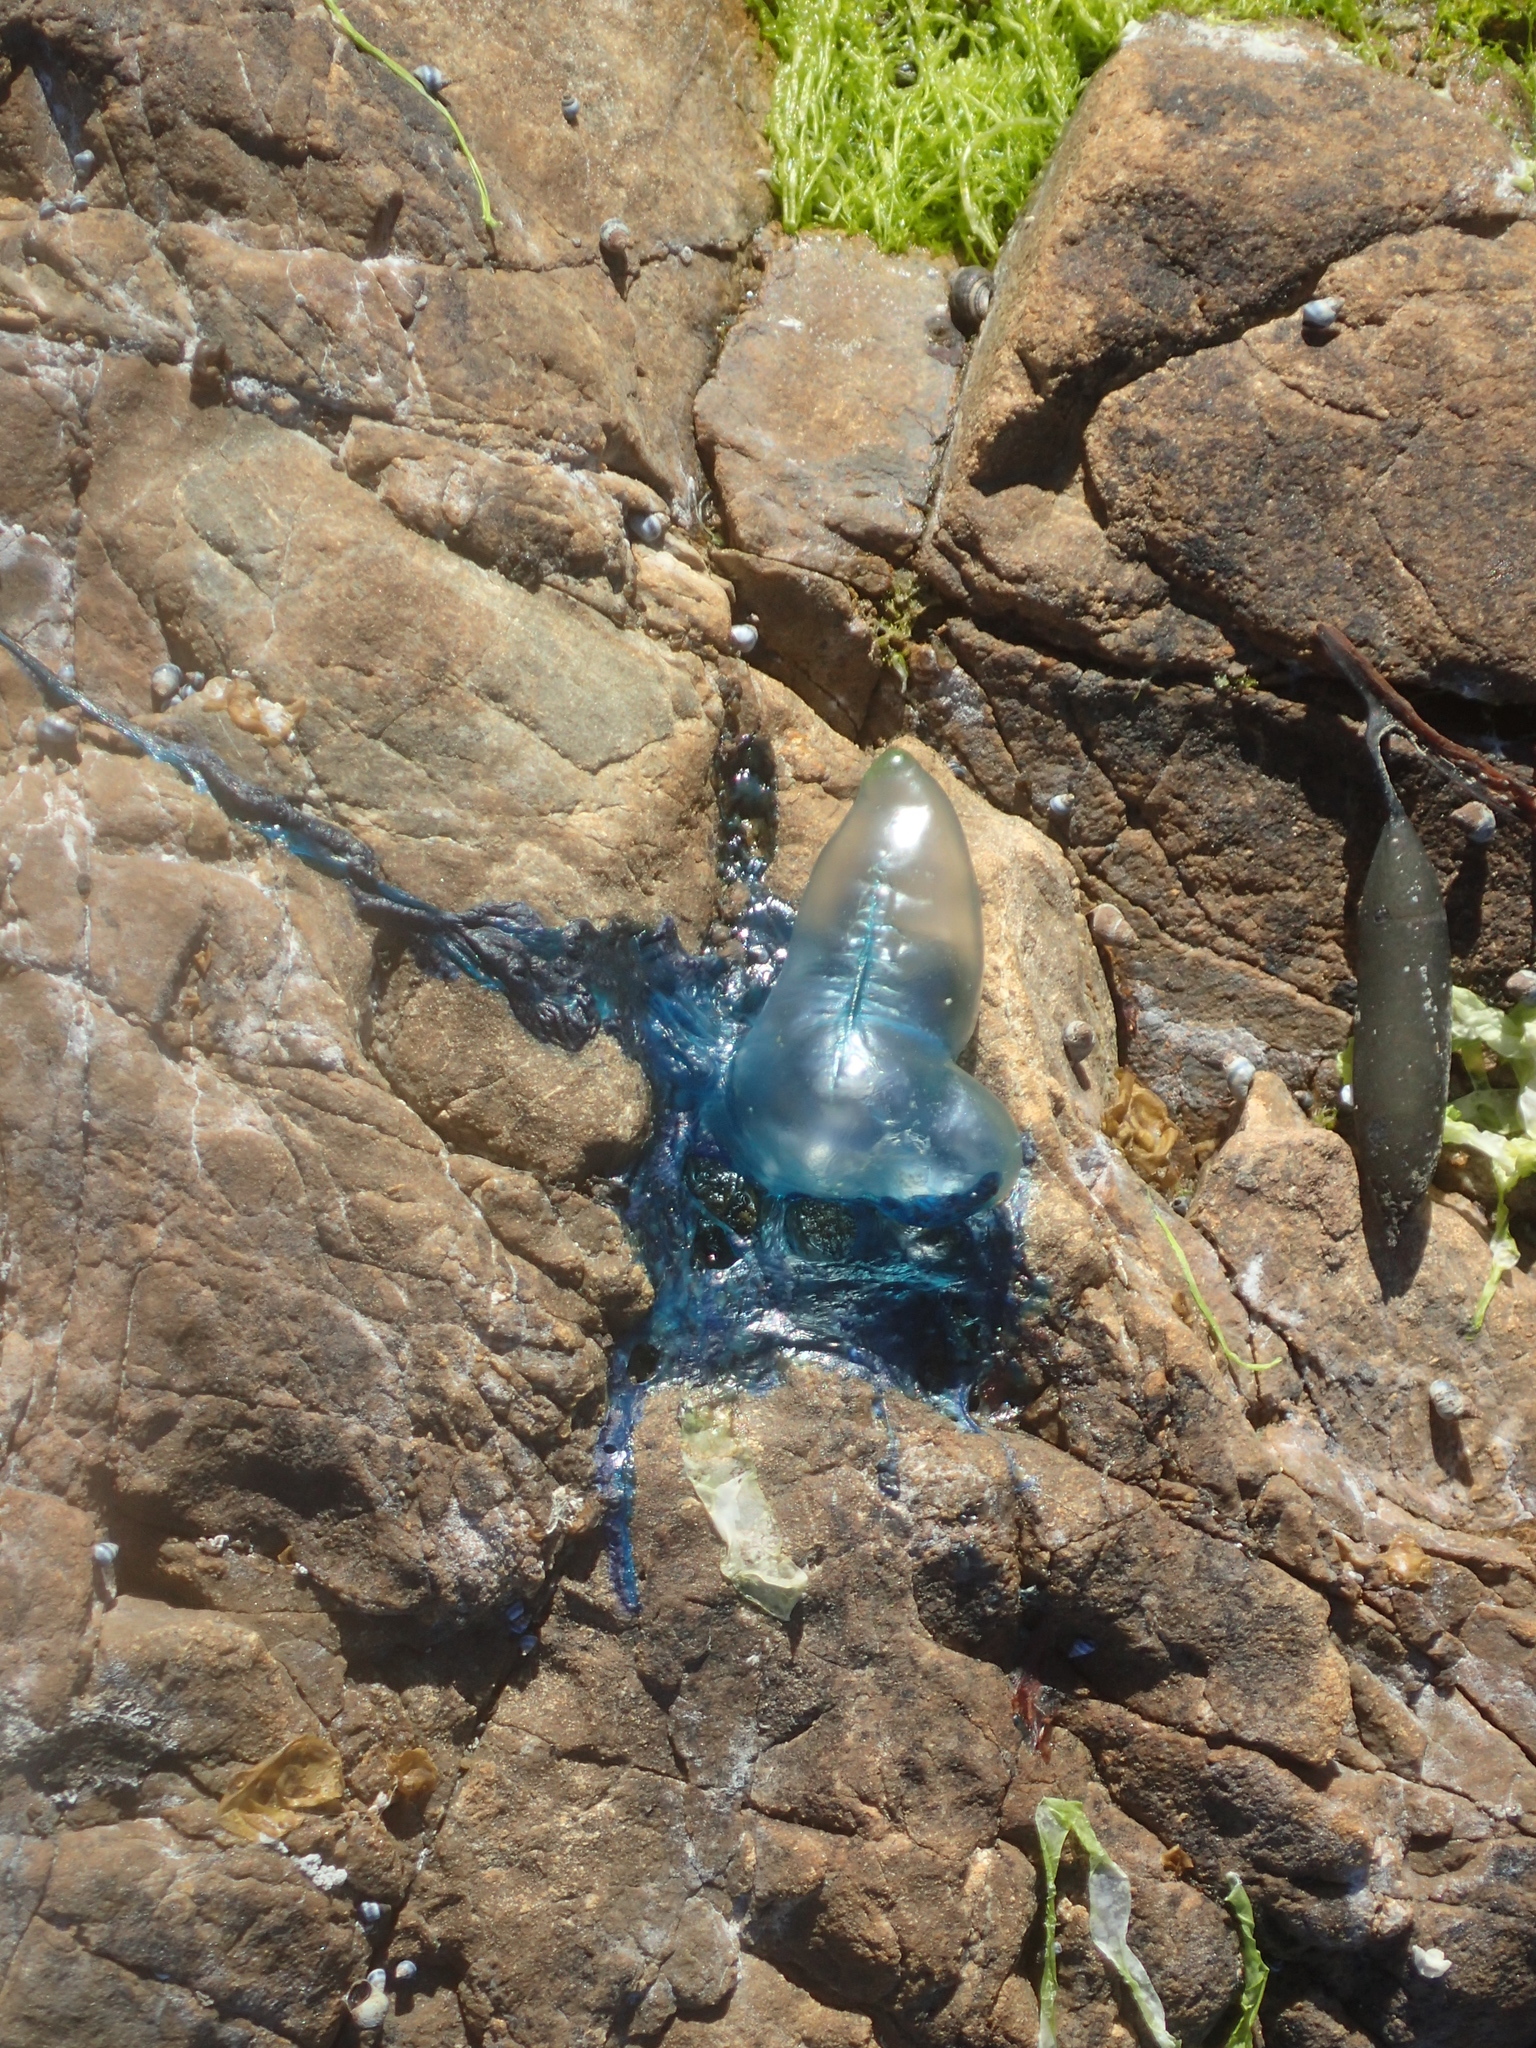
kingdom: Animalia
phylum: Cnidaria
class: Hydrozoa
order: Siphonophorae
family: Physaliidae
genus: Physalia
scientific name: Physalia physalis
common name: Portuguese man-of-war
